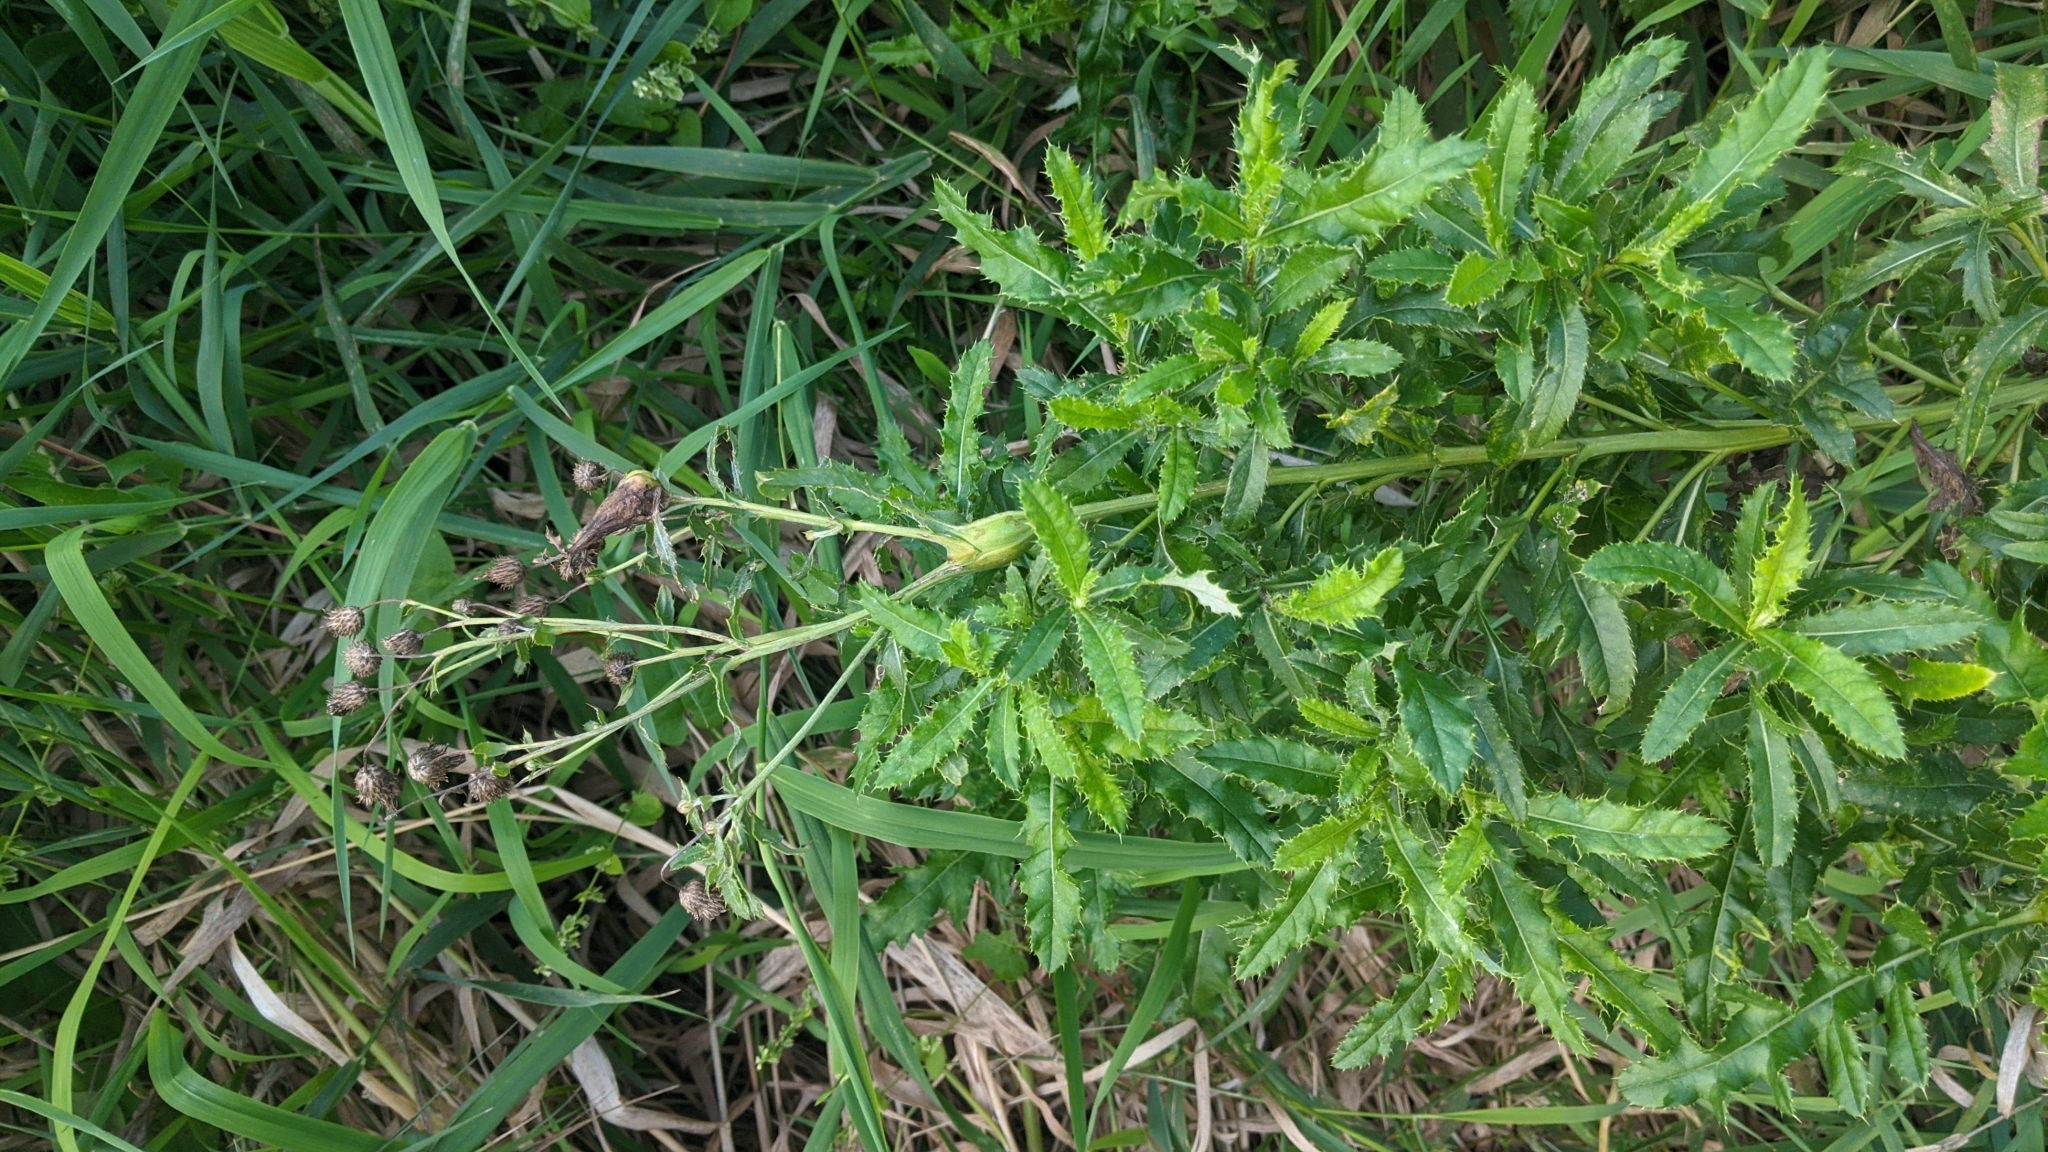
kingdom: Plantae
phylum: Tracheophyta
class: Magnoliopsida
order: Asterales
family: Asteraceae
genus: Cirsium
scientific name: Cirsium arvense
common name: Creeping thistle
